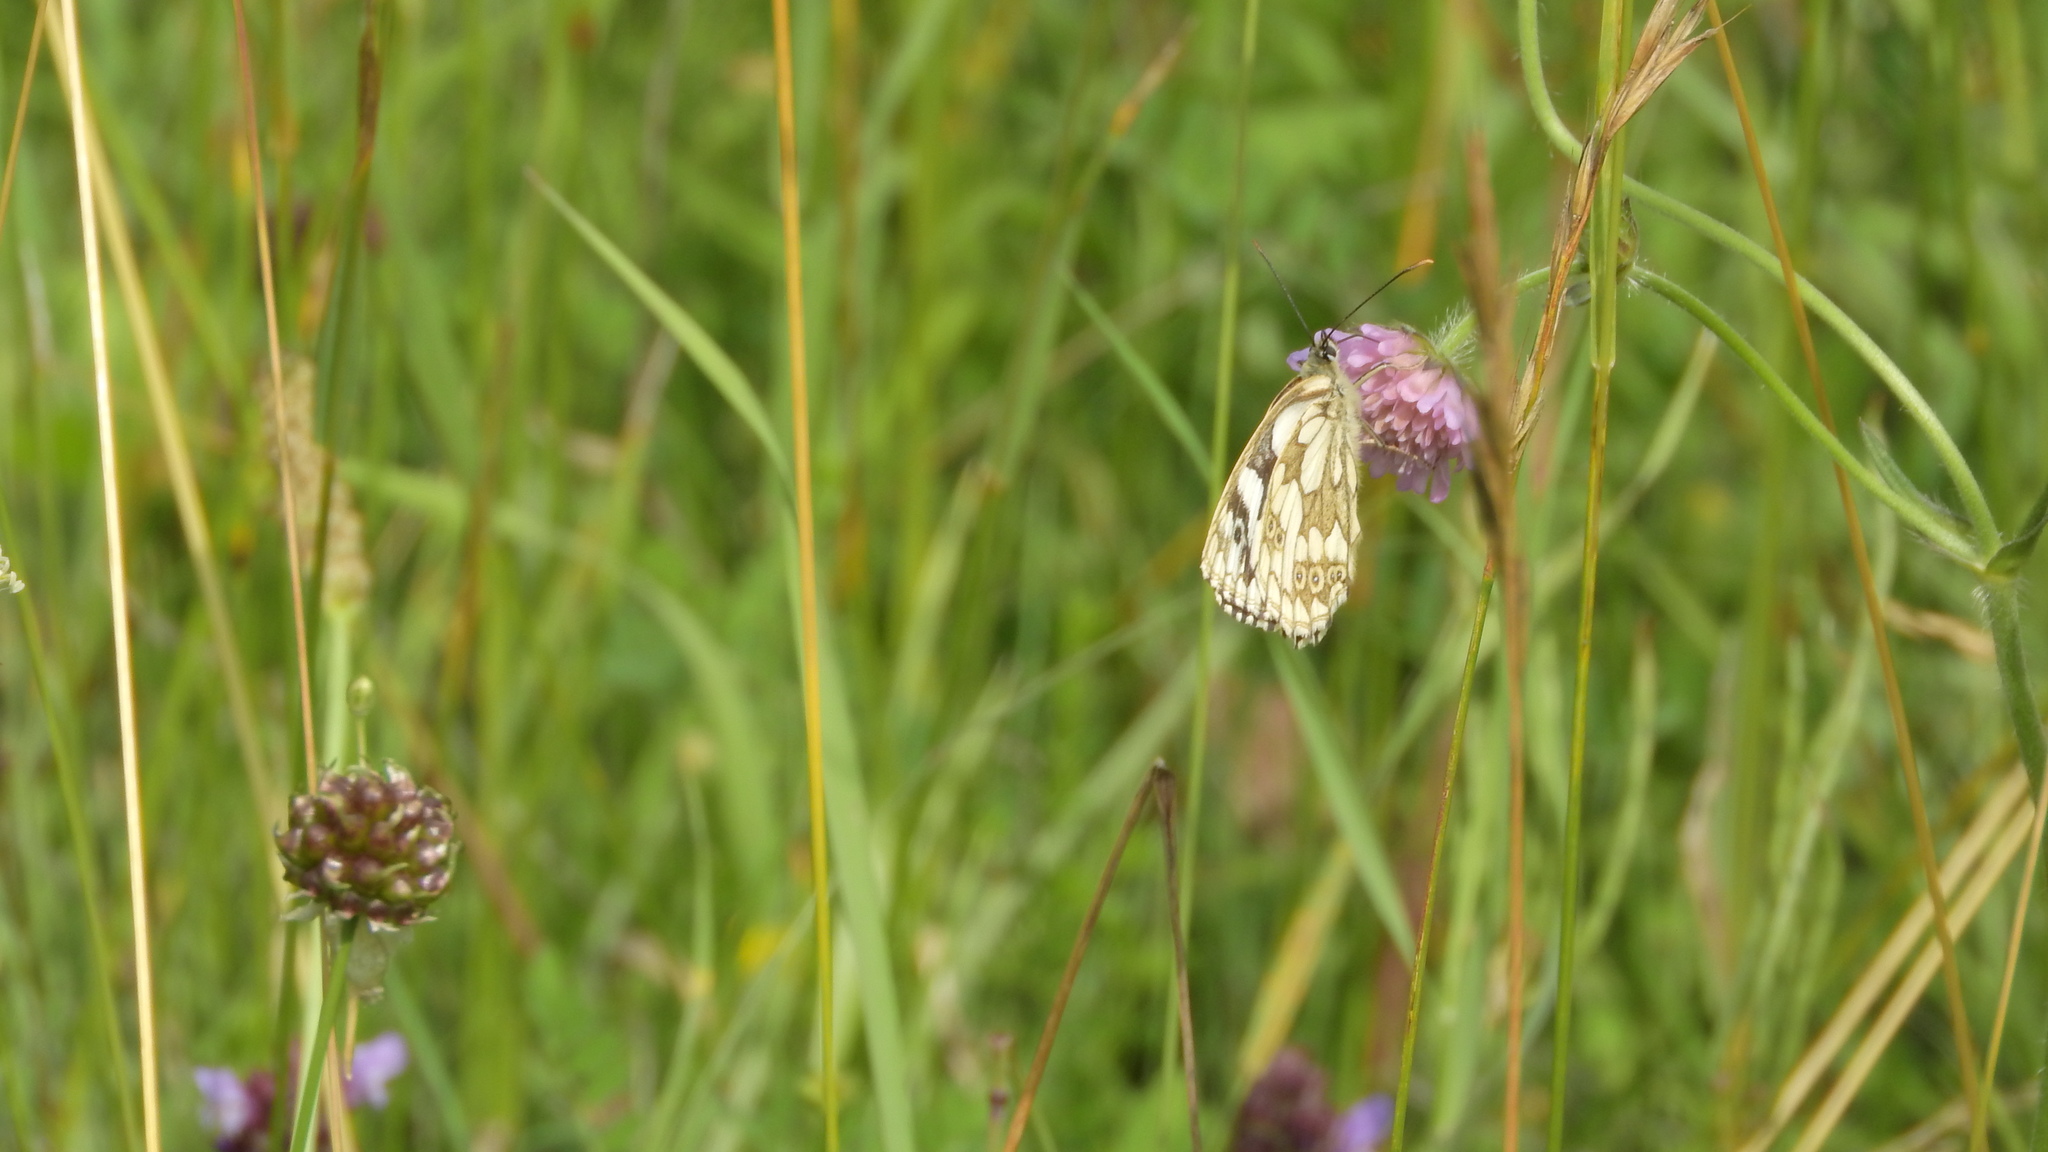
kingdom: Animalia
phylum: Arthropoda
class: Insecta
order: Lepidoptera
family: Nymphalidae
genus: Melanargia
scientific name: Melanargia galathea
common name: Marbled white
